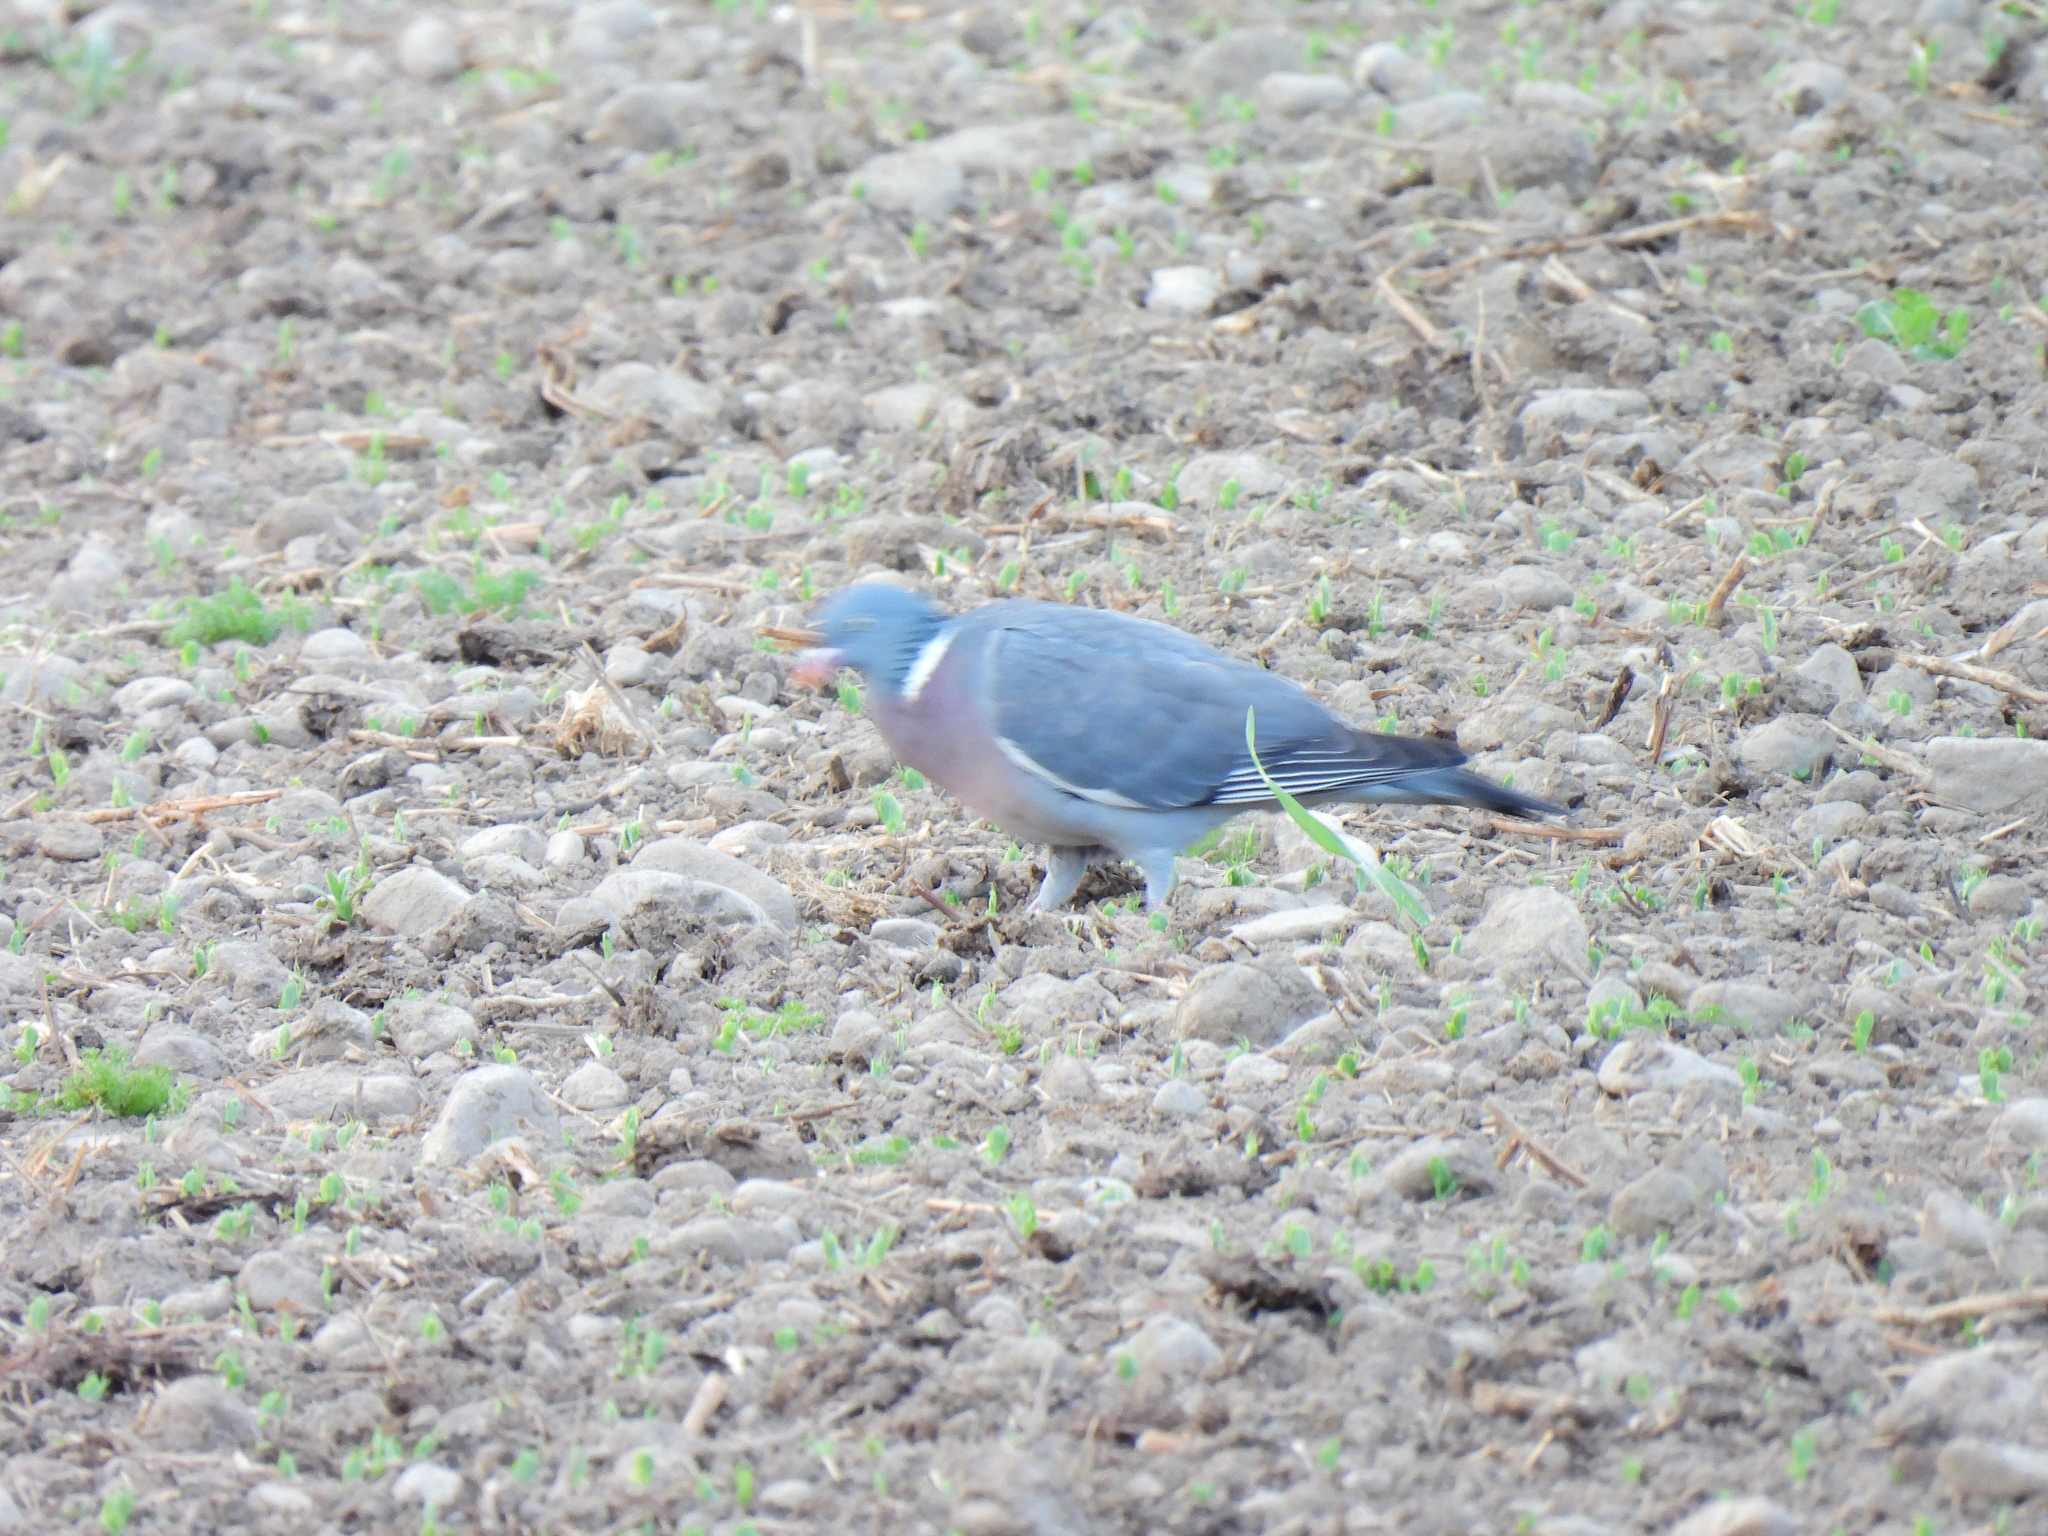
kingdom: Animalia
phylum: Chordata
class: Aves
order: Columbiformes
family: Columbidae
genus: Columba
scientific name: Columba palumbus
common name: Common wood pigeon
